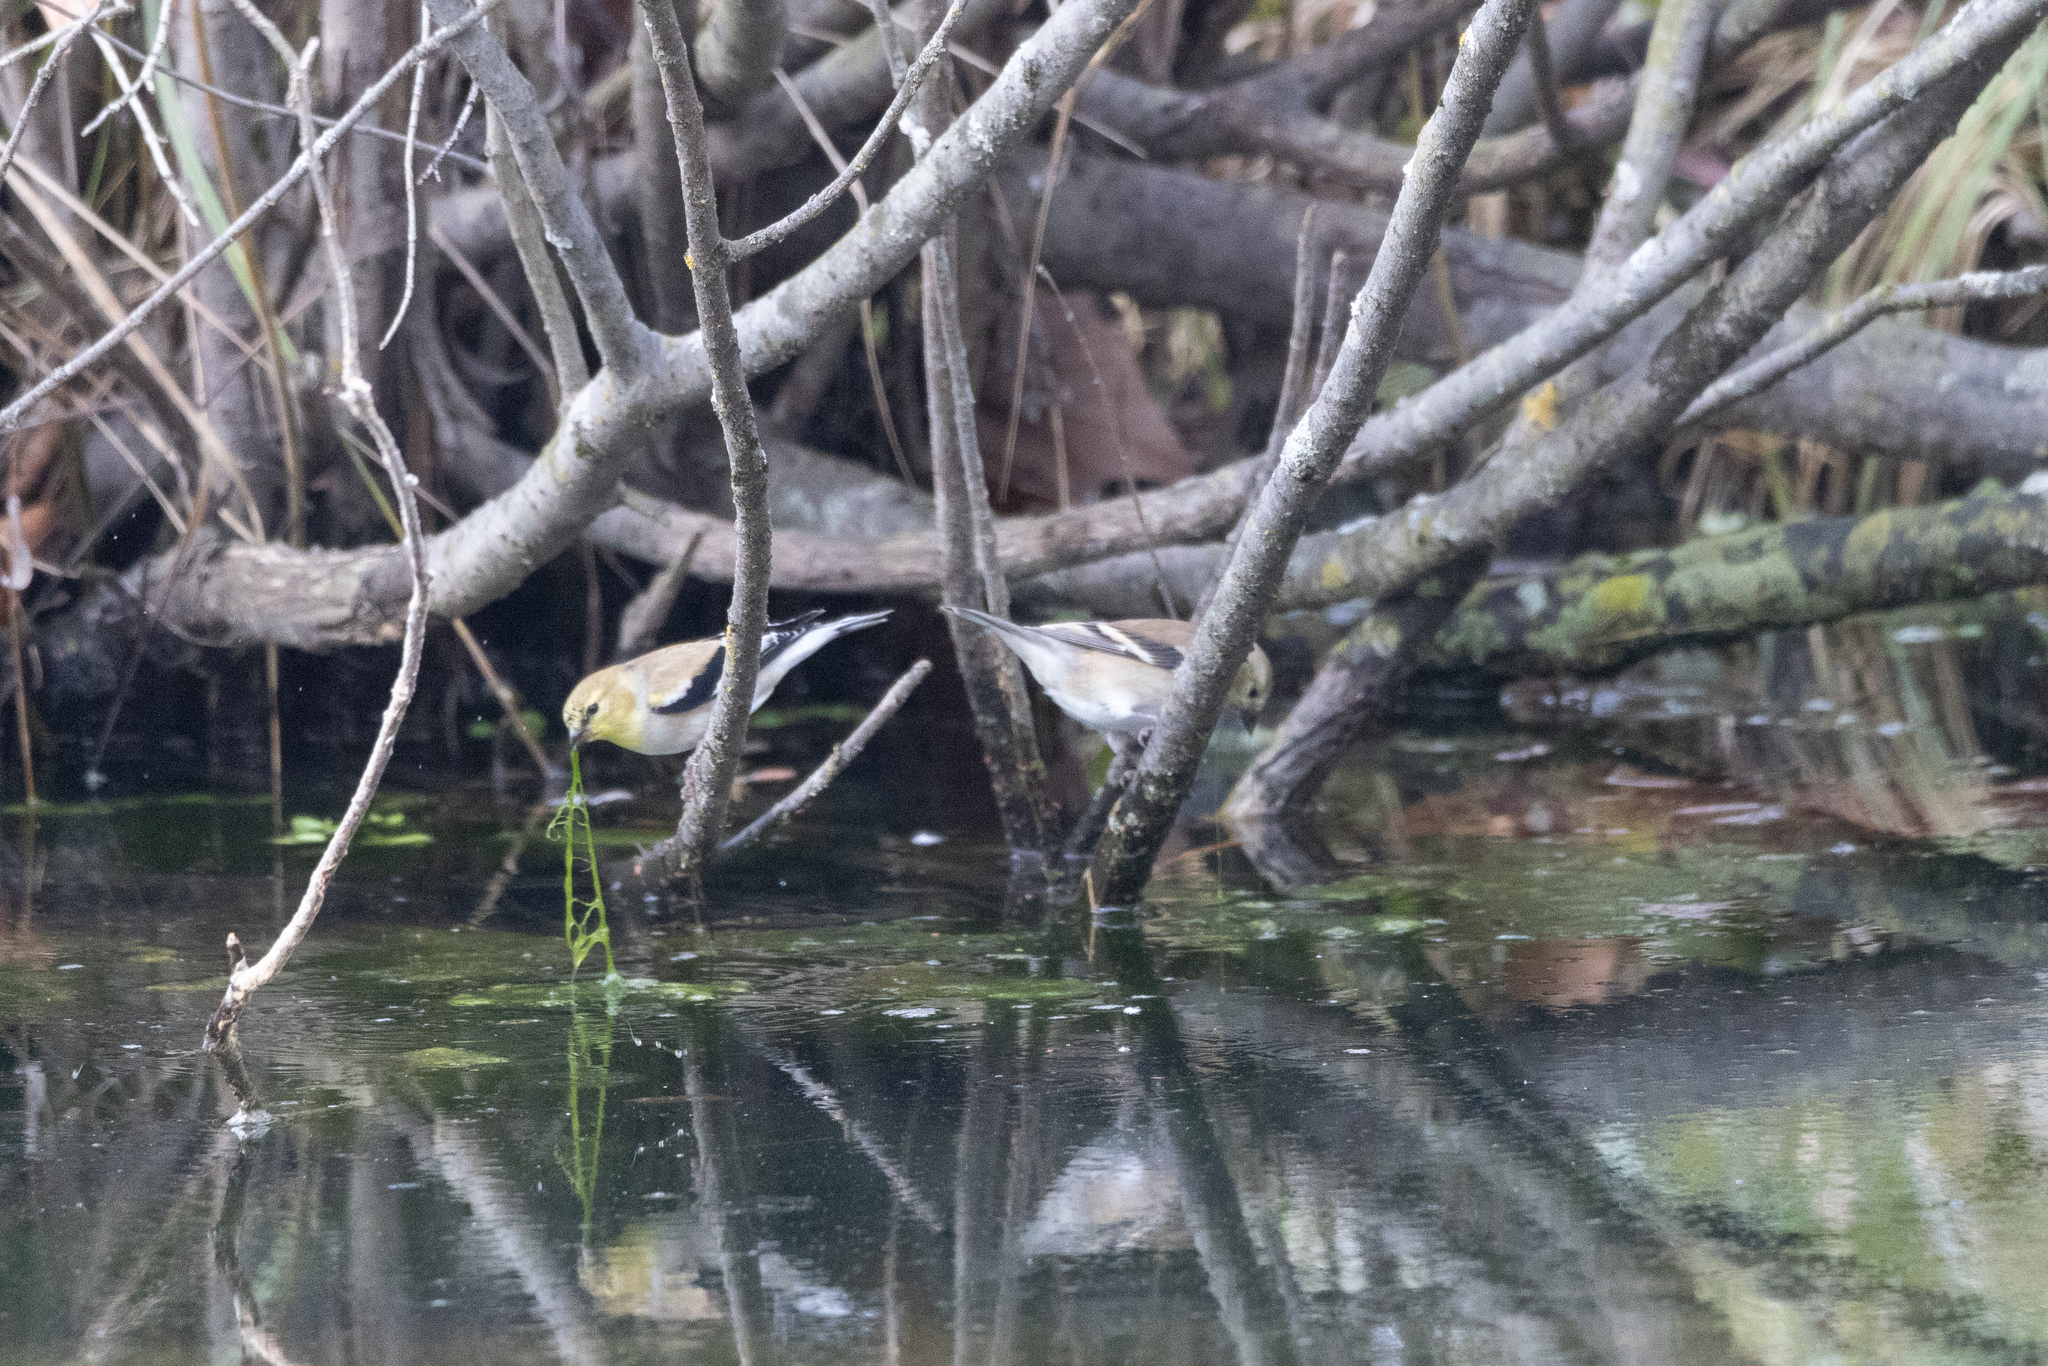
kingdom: Animalia
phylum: Chordata
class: Aves
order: Passeriformes
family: Fringillidae
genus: Spinus
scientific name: Spinus tristis
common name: American goldfinch
